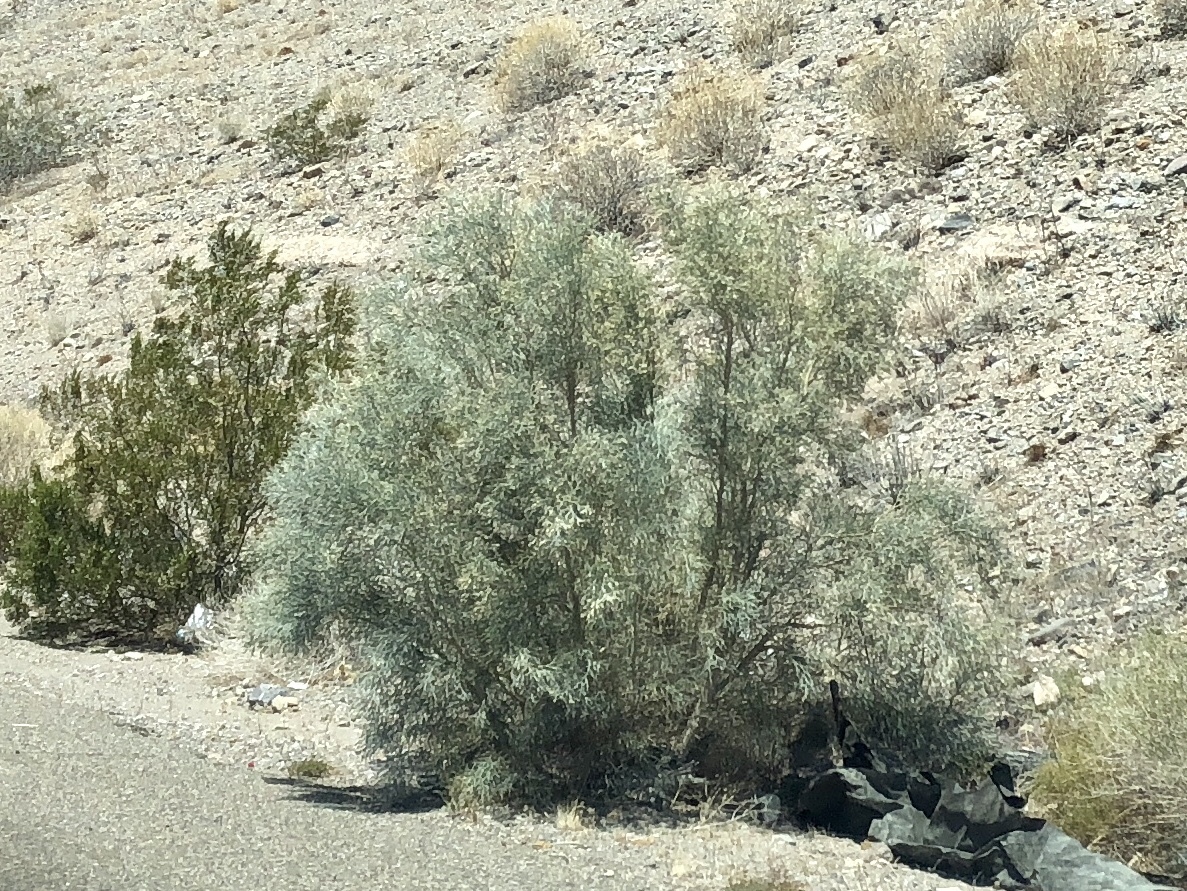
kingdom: Plantae
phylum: Tracheophyta
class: Magnoliopsida
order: Fabales
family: Fabaceae
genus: Psorothamnus
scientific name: Psorothamnus spinosus
